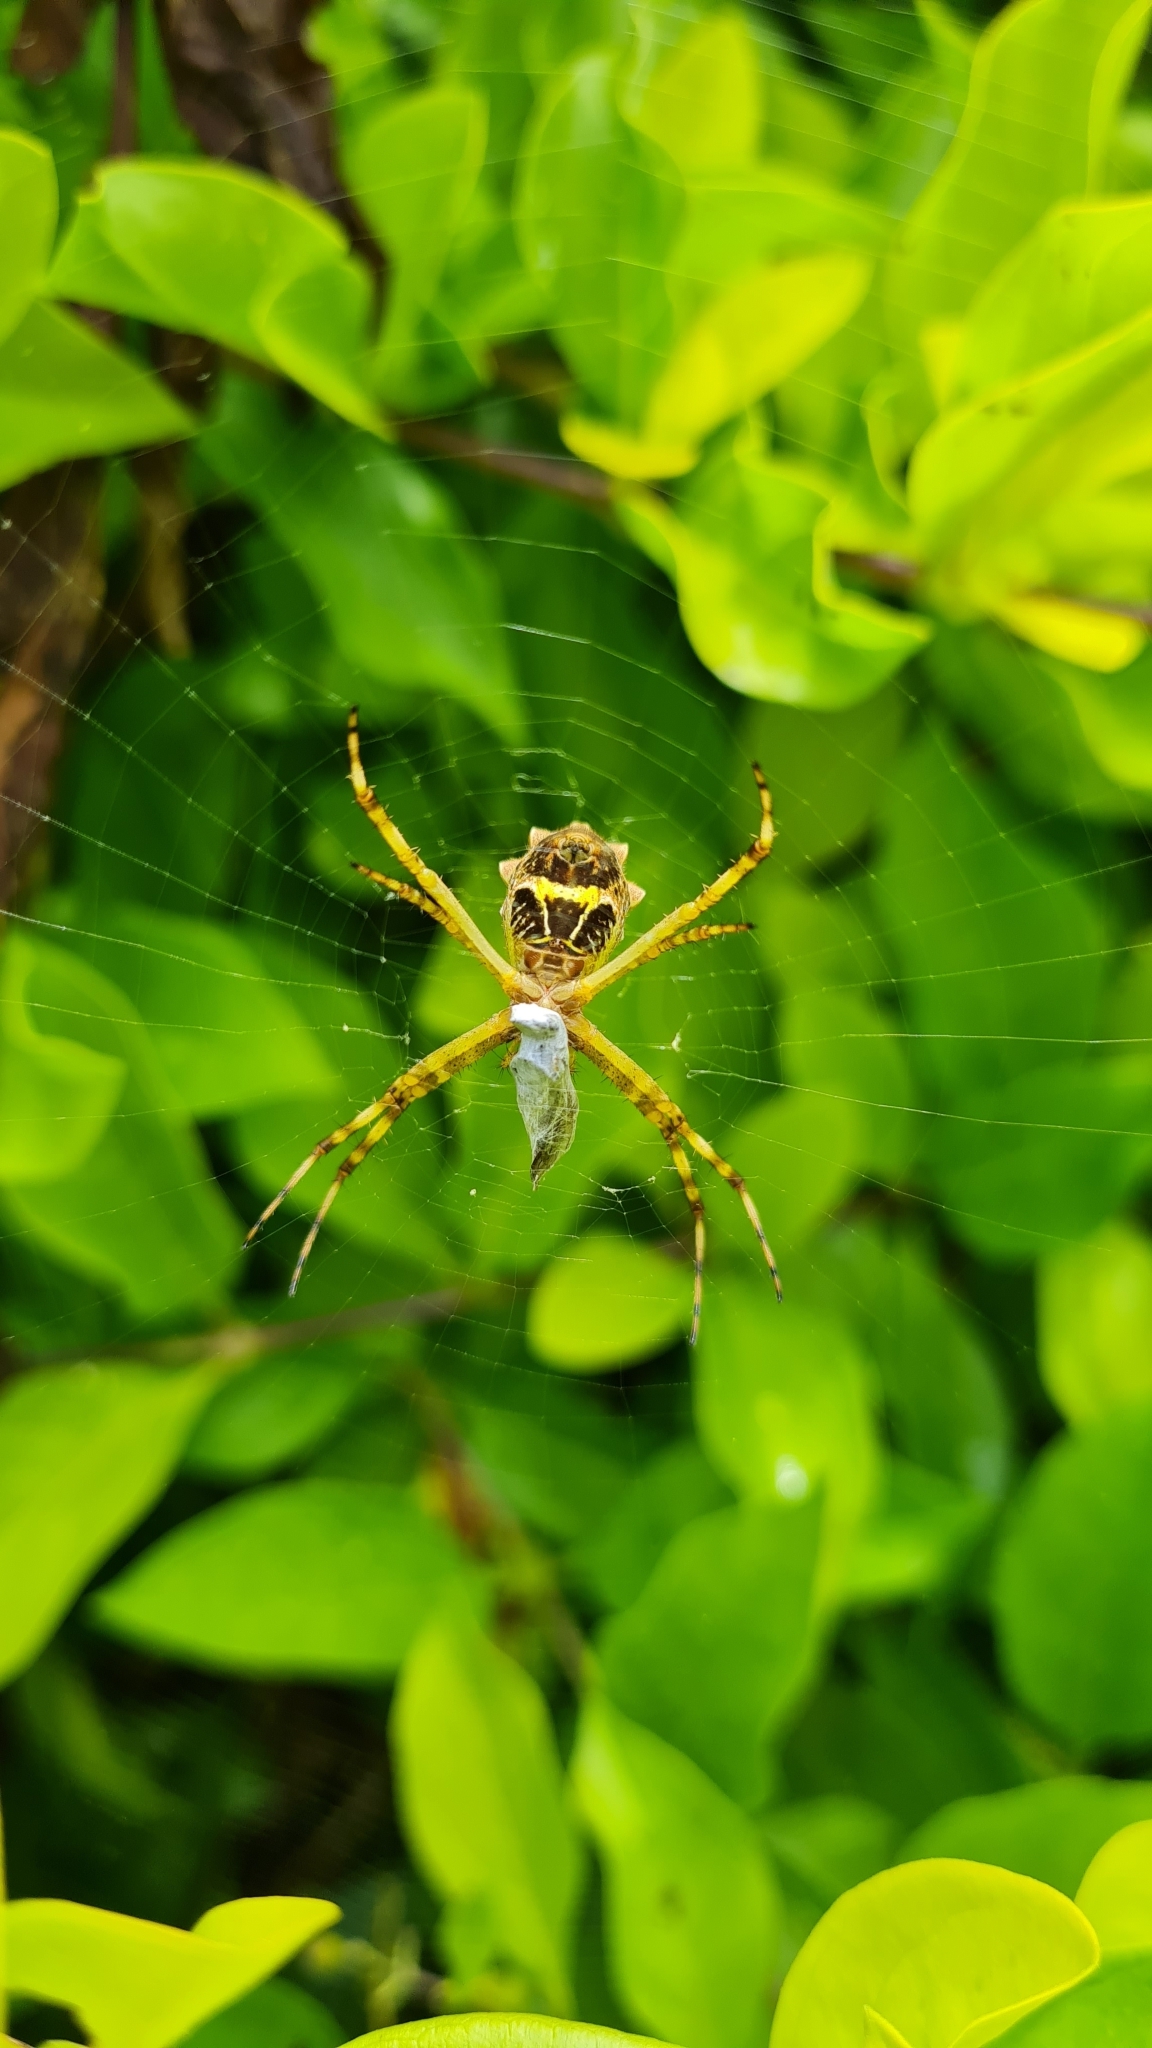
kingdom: Animalia
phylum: Arthropoda
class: Arachnida
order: Araneae
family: Araneidae
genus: Argiope
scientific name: Argiope argentata
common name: Orb weavers
